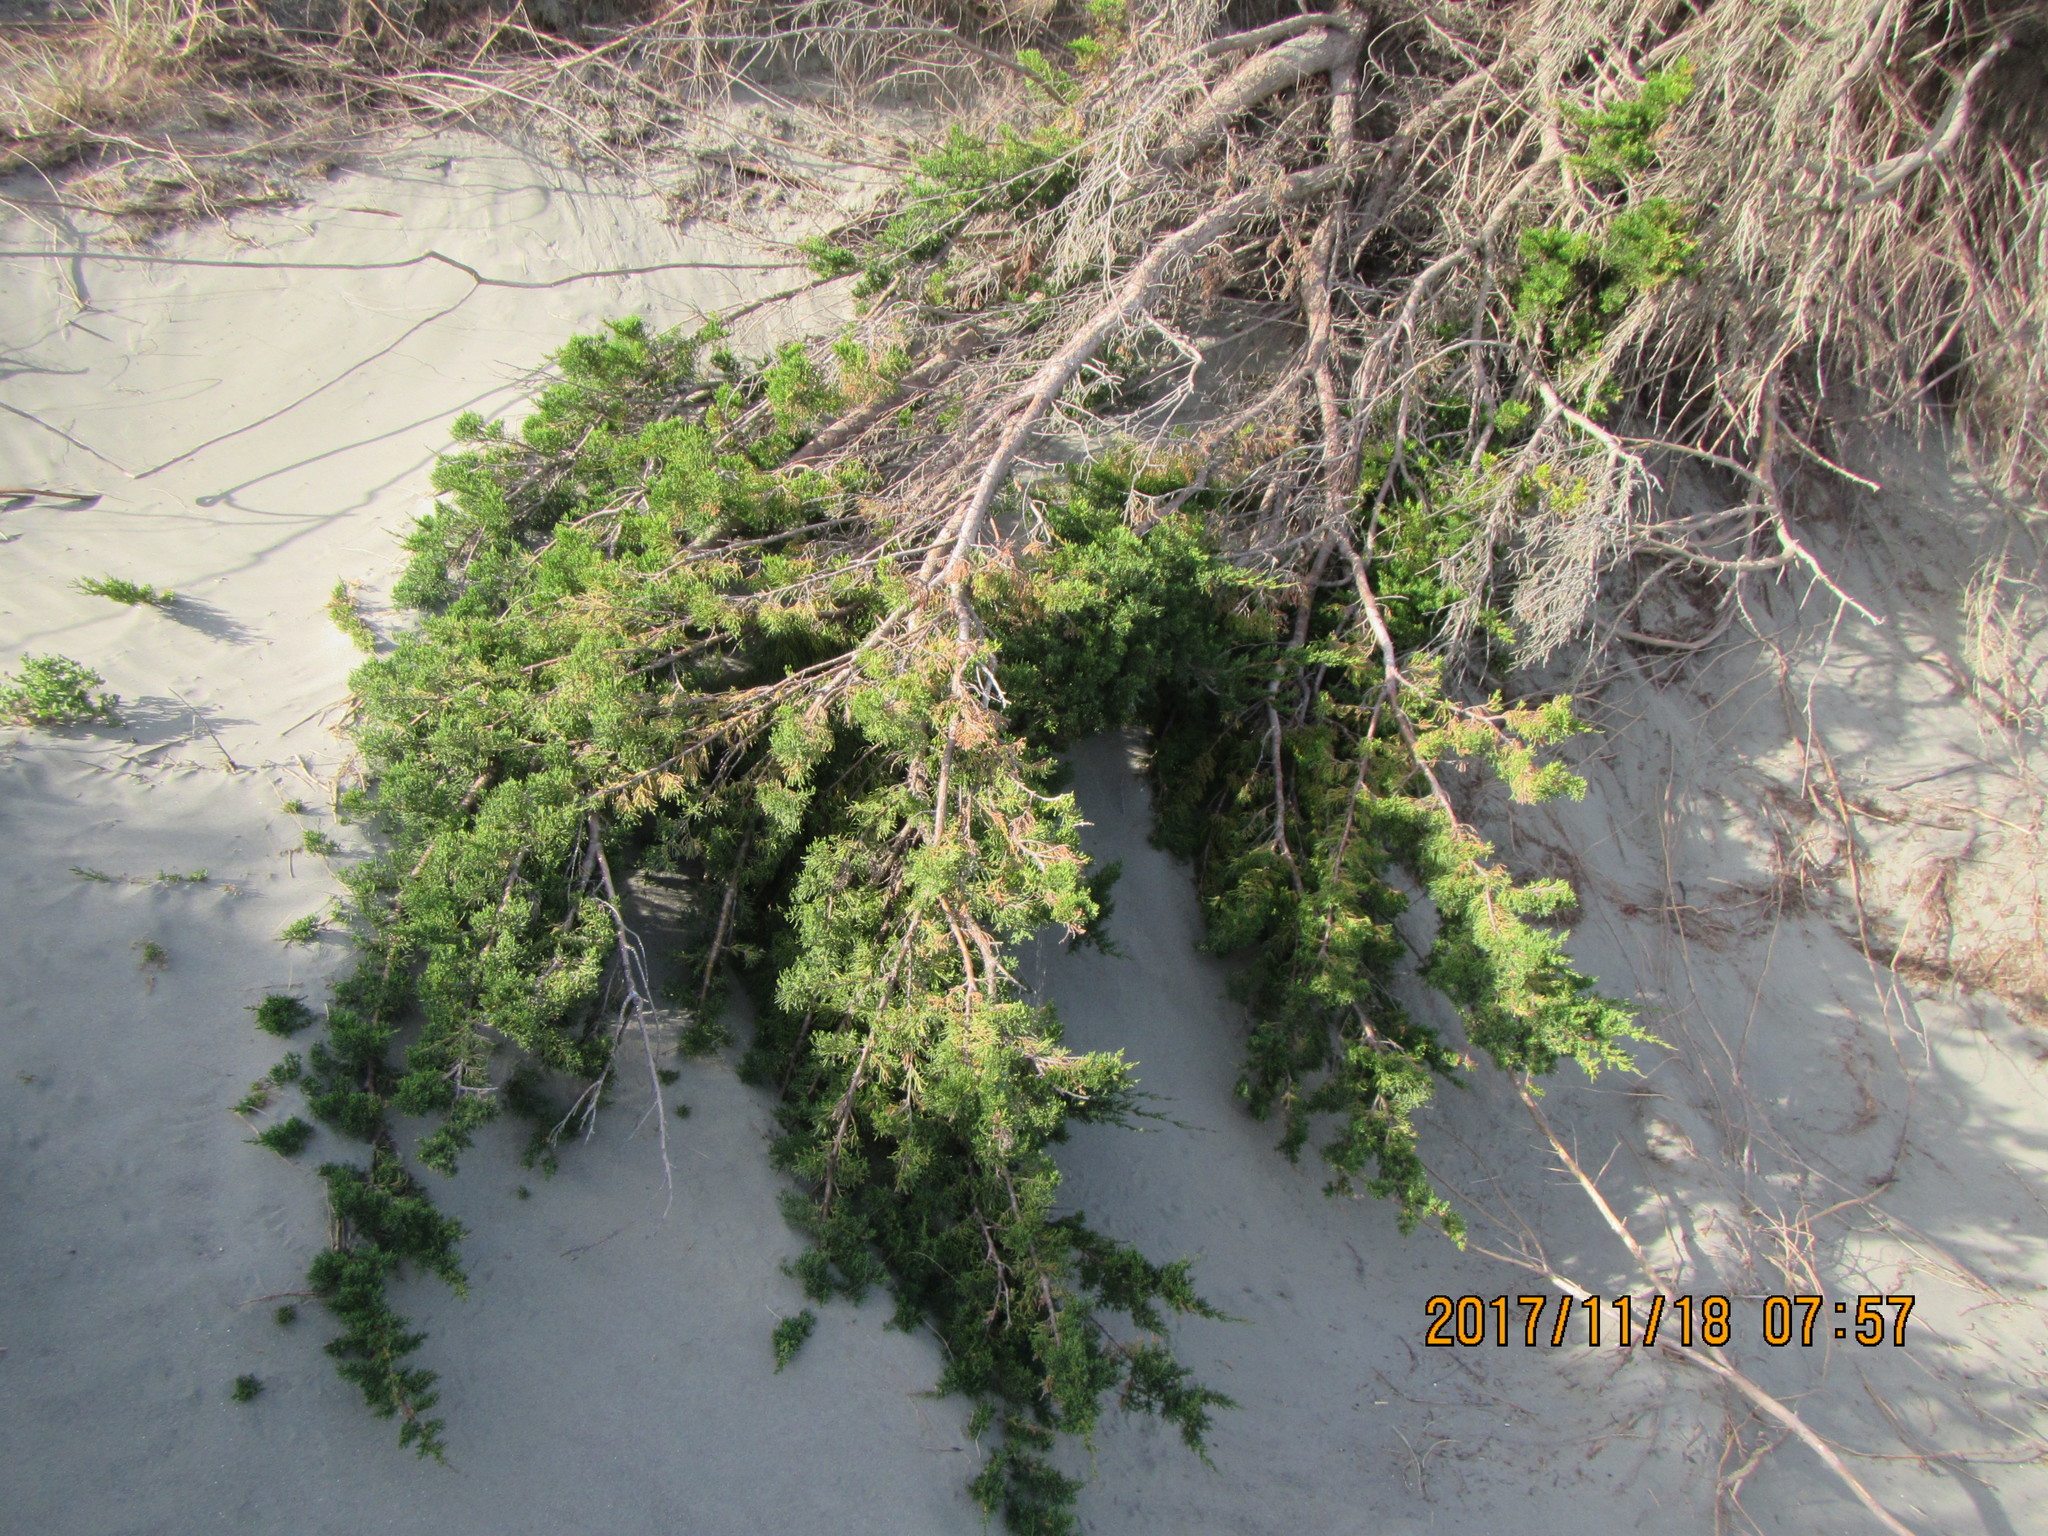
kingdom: Plantae
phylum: Tracheophyta
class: Pinopsida
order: Pinales
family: Cupressaceae
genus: Cupressus
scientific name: Cupressus macrocarpa
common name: Monterey cypress
